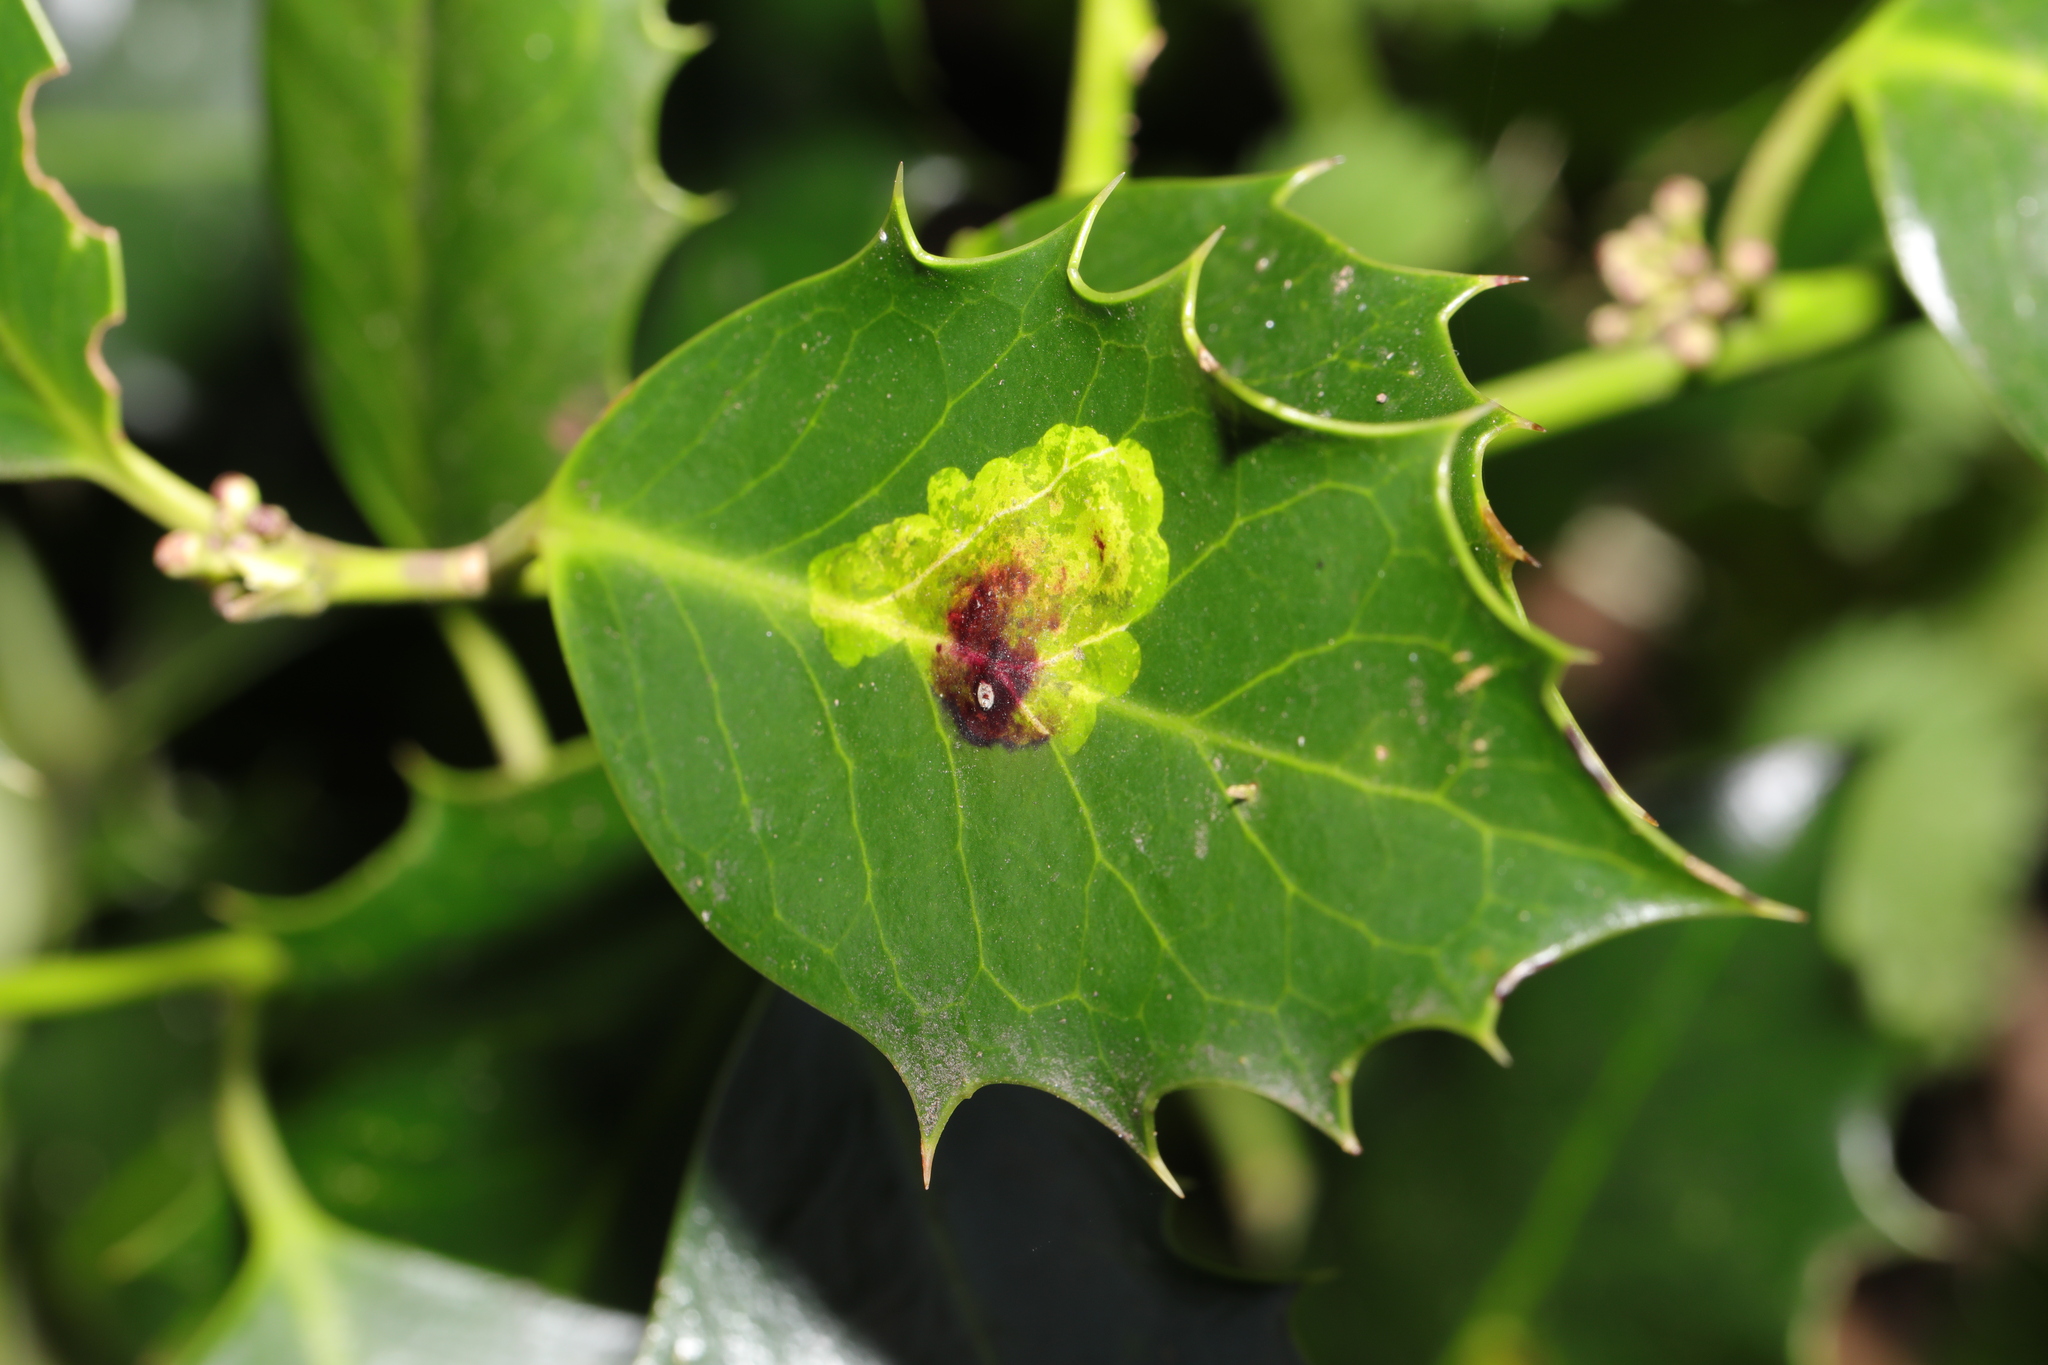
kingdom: Animalia
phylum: Arthropoda
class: Insecta
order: Diptera
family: Agromyzidae
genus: Phytomyza
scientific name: Phytomyza ilicis
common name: Holly leafminer
